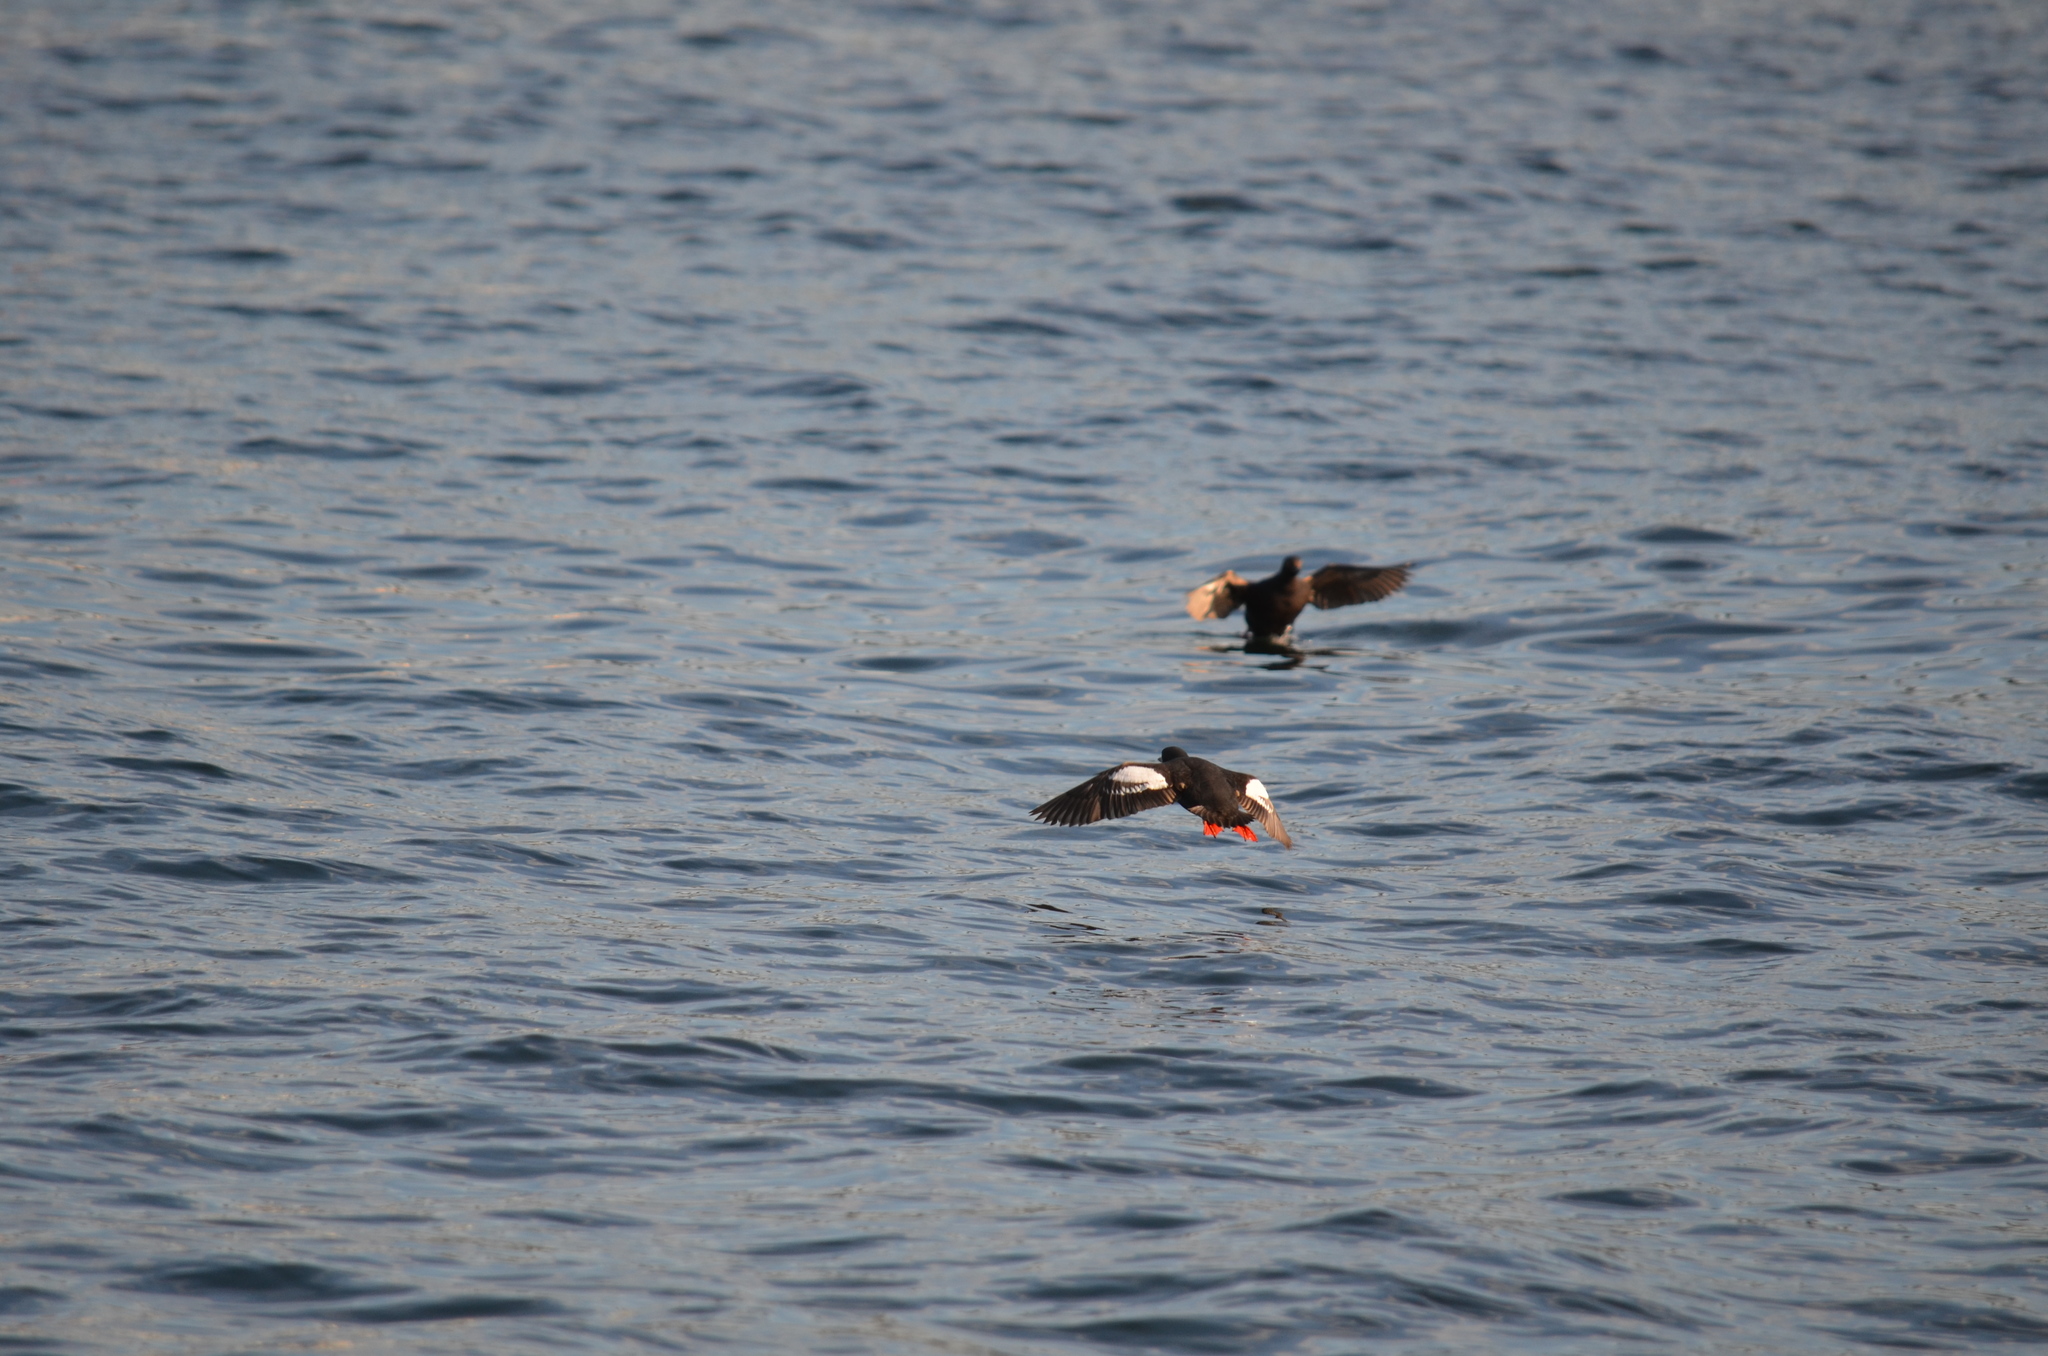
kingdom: Animalia
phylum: Chordata
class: Aves
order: Charadriiformes
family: Alcidae
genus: Cepphus
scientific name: Cepphus columba
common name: Pigeon guillemot
